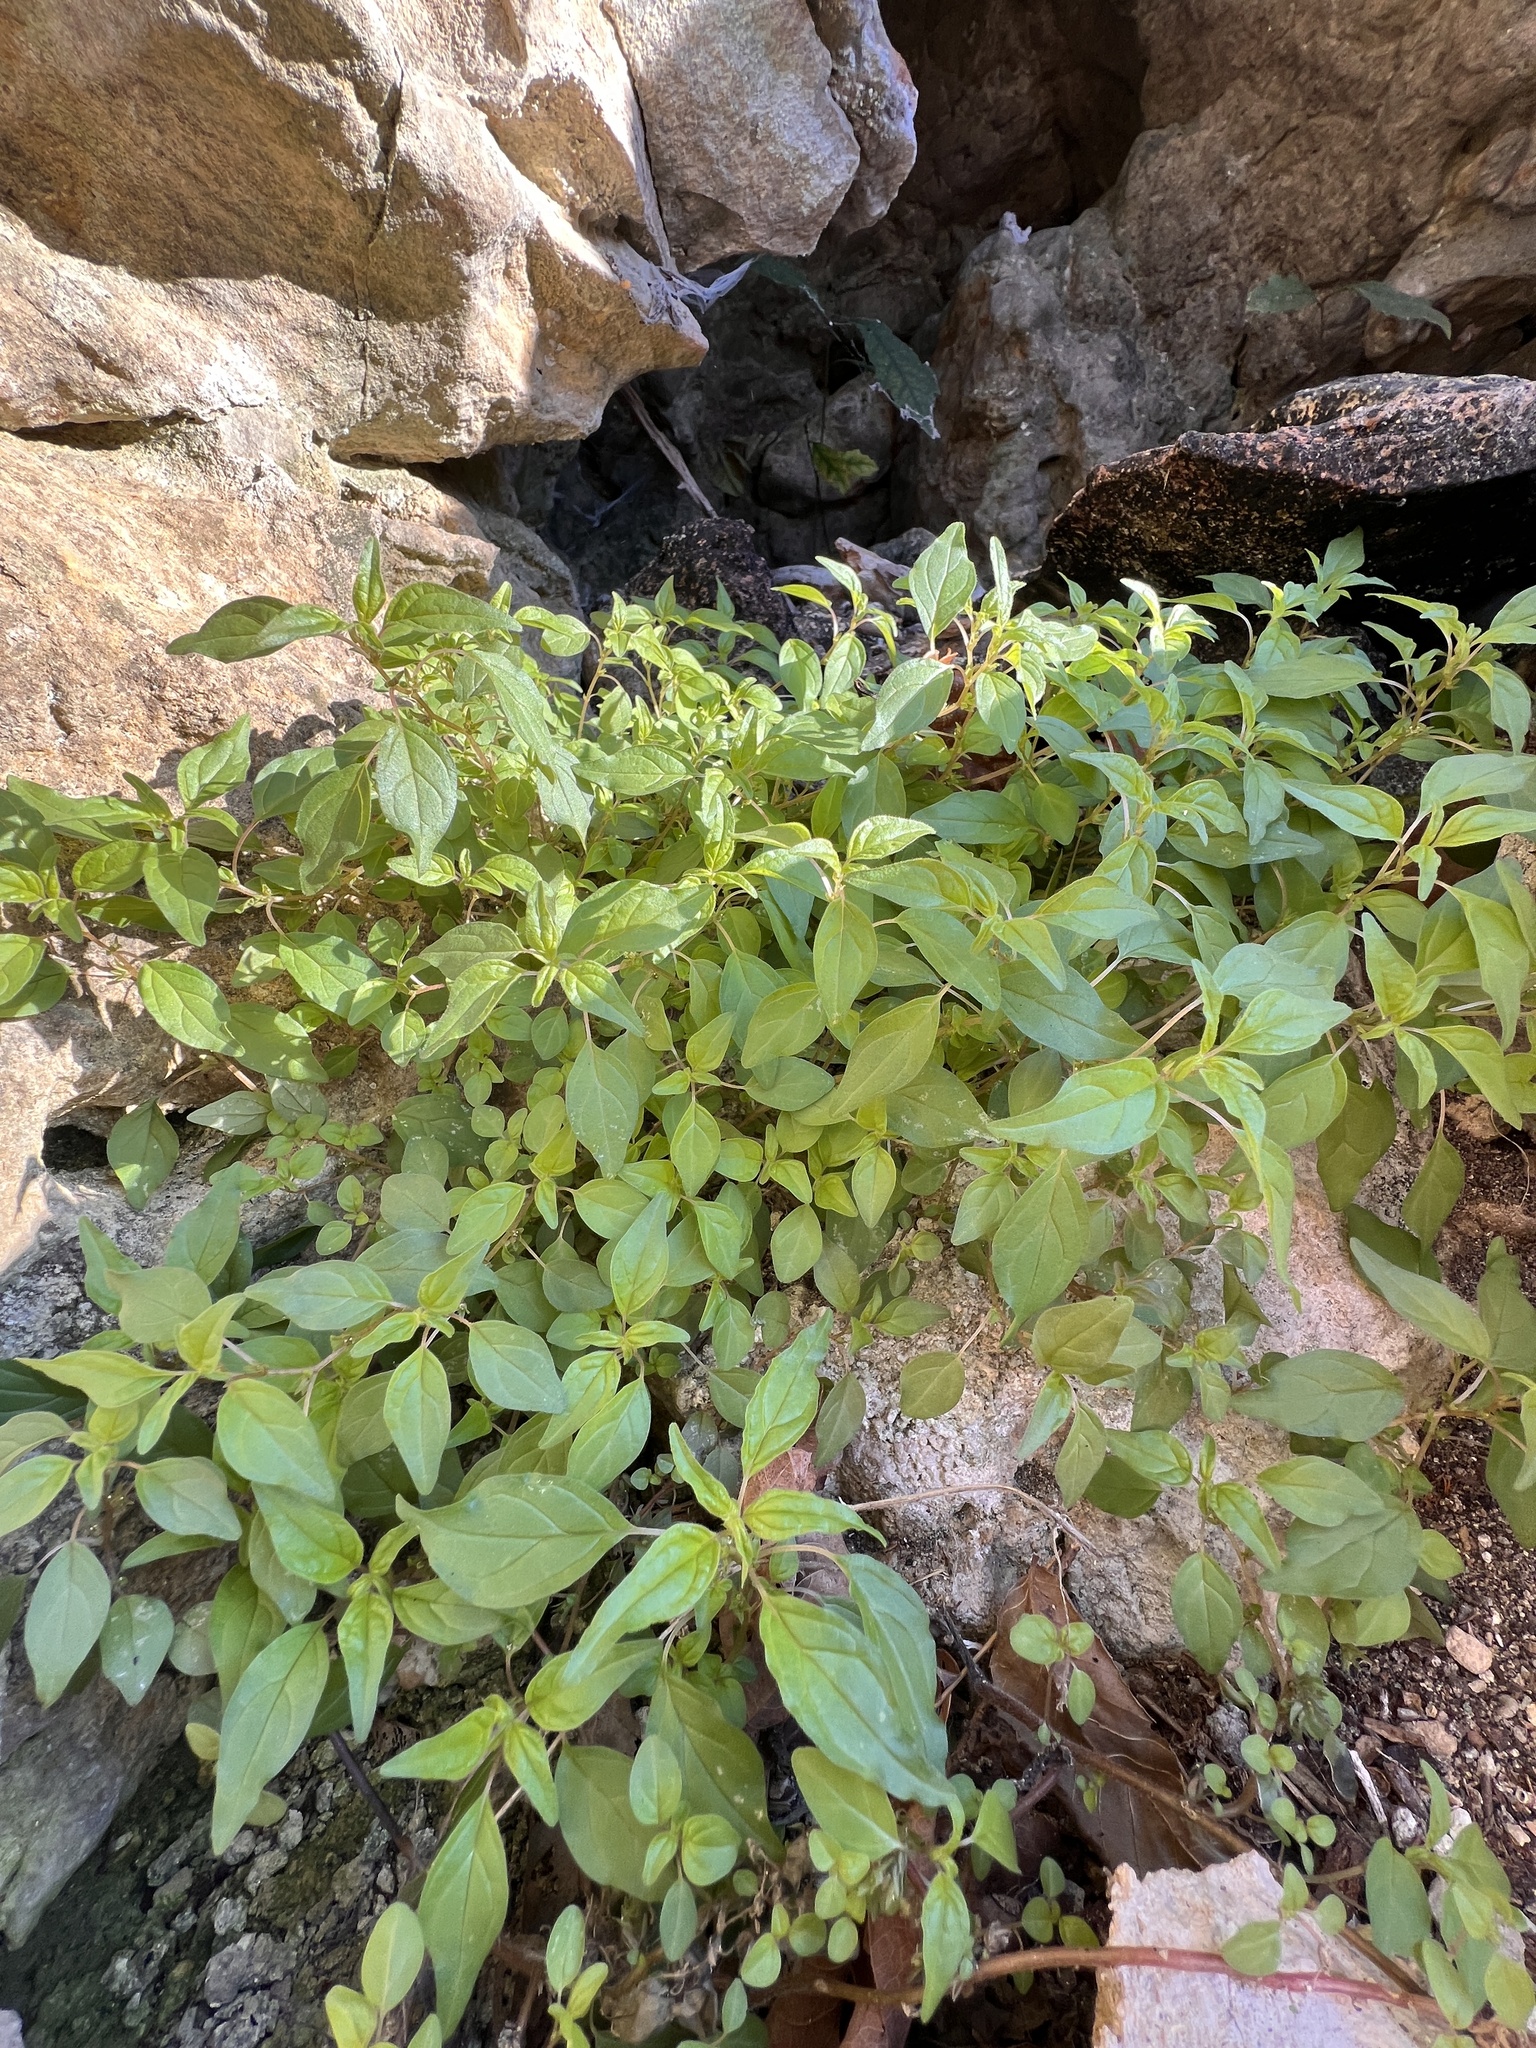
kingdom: Plantae
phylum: Tracheophyta
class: Magnoliopsida
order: Rosales
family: Urticaceae
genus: Parietaria
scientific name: Parietaria pensylvanica
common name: Pennsylvania pellitory
